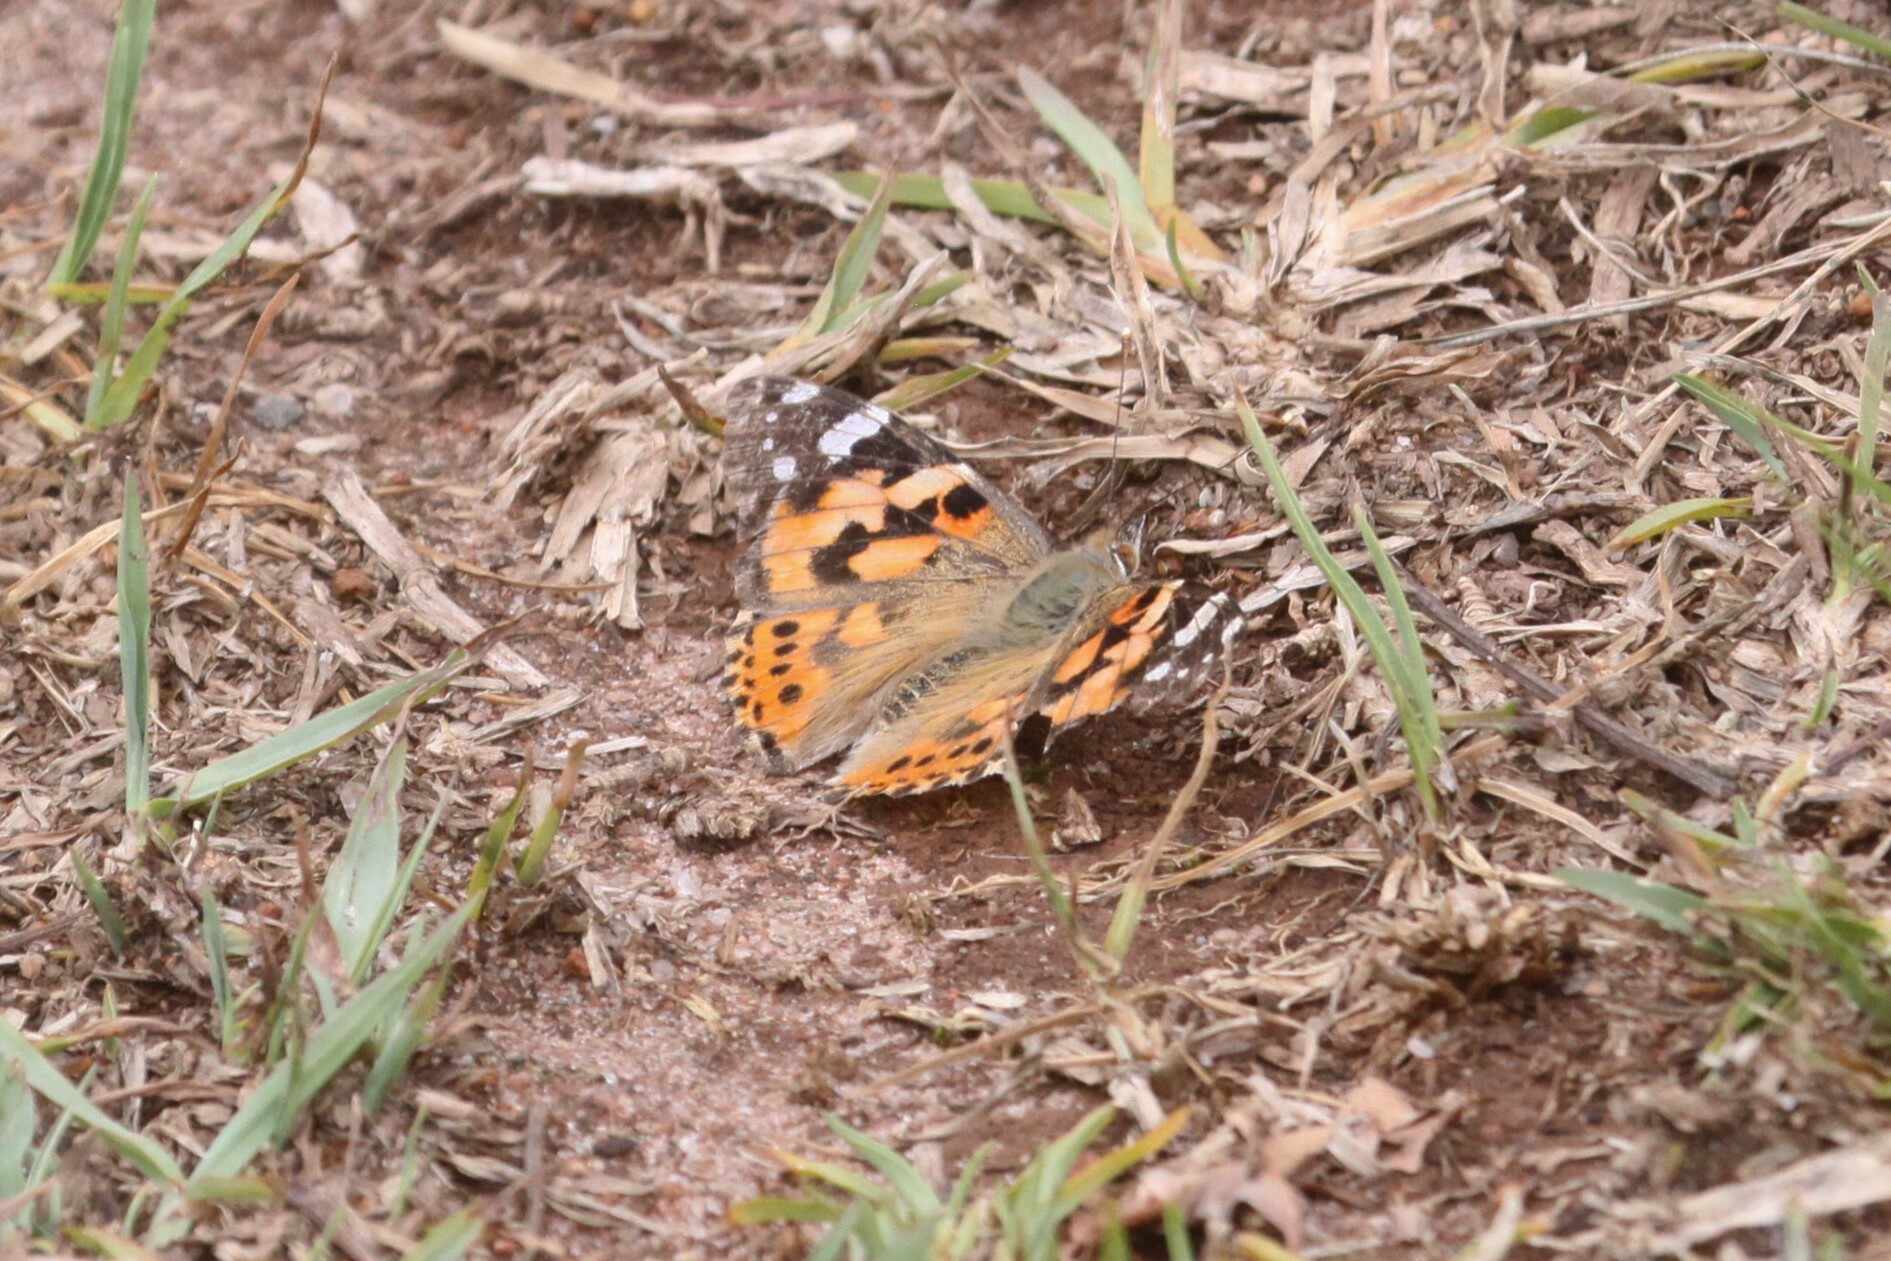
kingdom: Animalia
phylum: Arthropoda
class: Insecta
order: Lepidoptera
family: Nymphalidae
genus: Vanessa
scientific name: Vanessa cardui
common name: Painted lady
